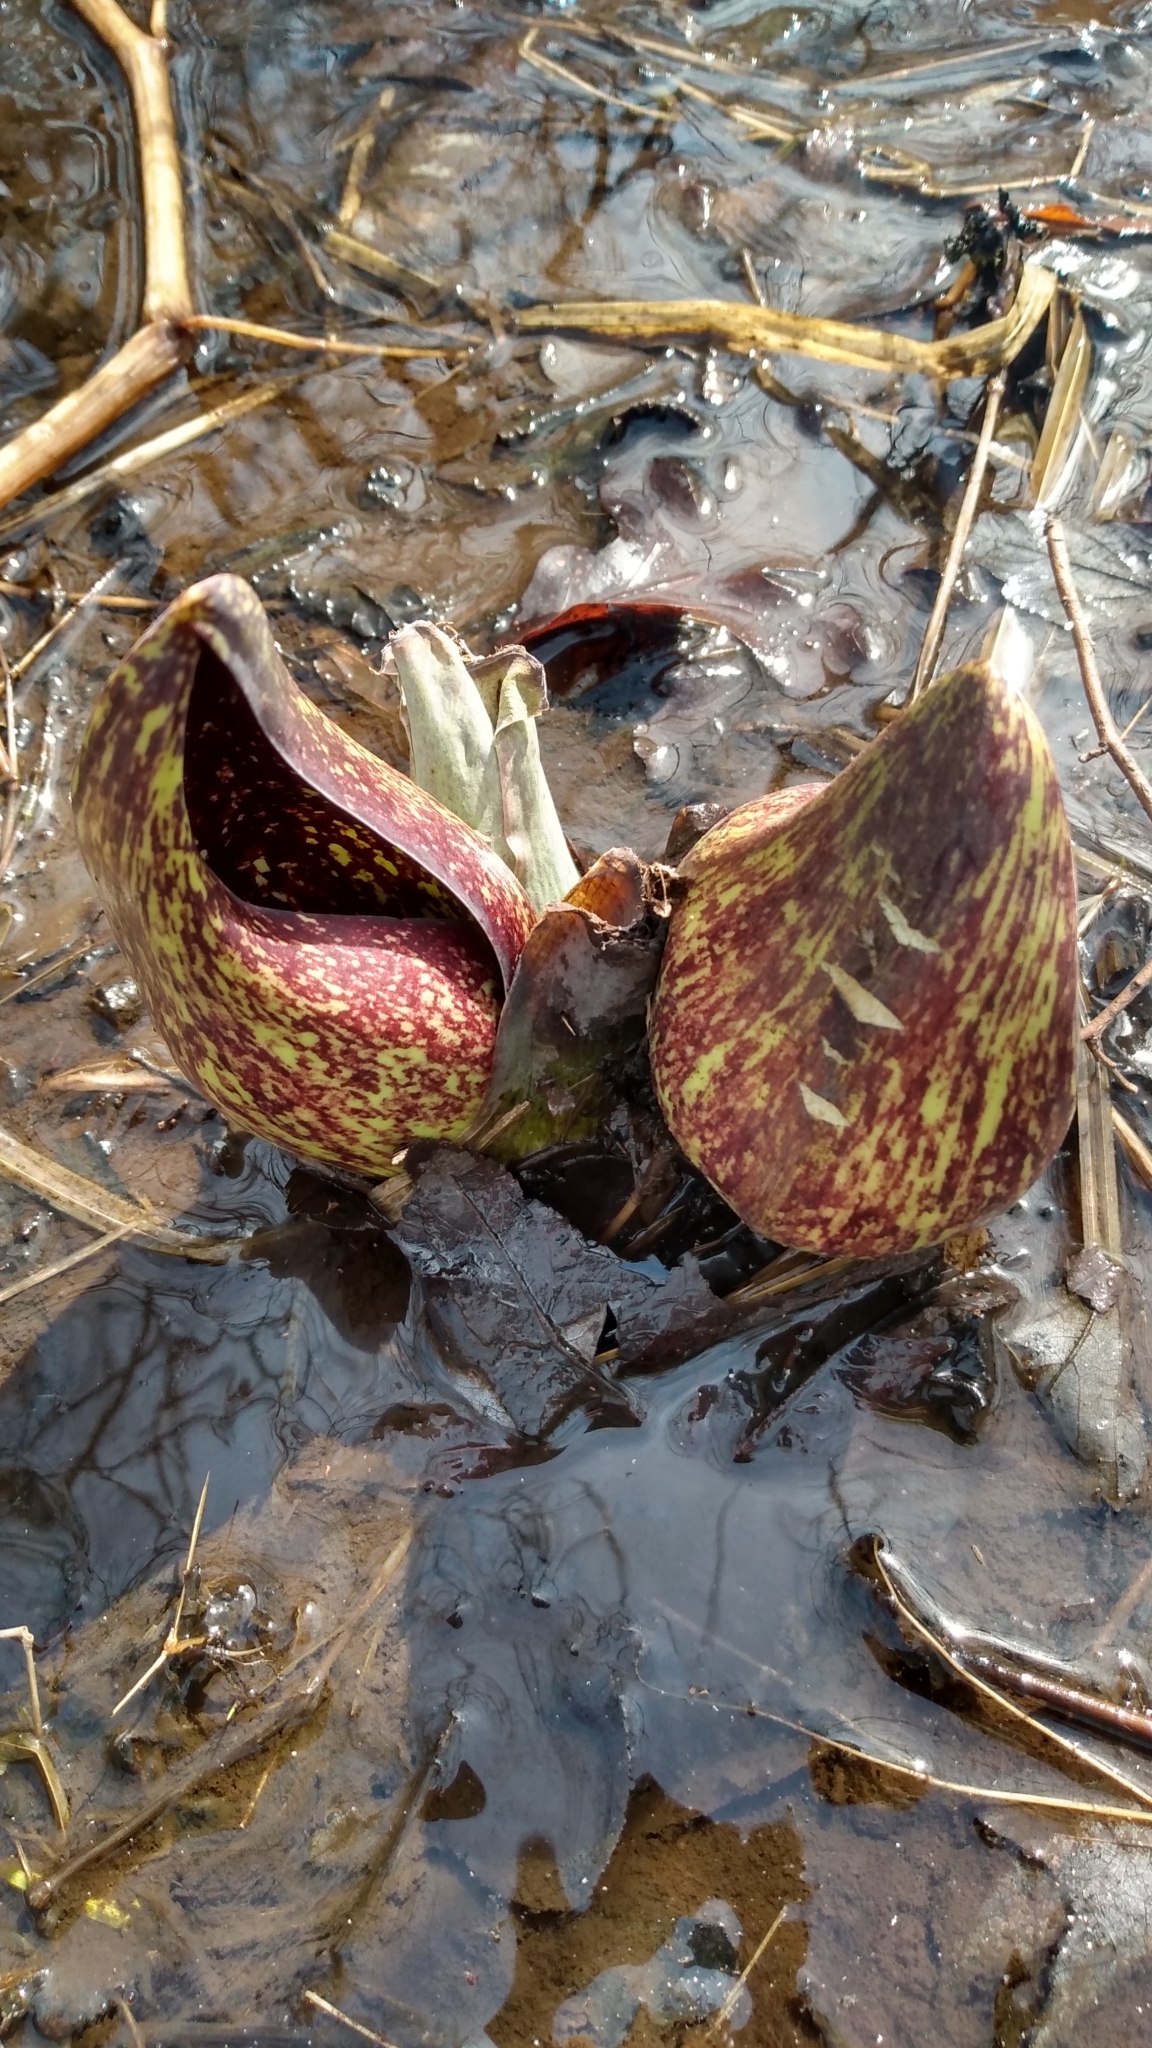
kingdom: Plantae
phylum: Tracheophyta
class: Liliopsida
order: Alismatales
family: Araceae
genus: Symplocarpus
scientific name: Symplocarpus foetidus
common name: Eastern skunk cabbage
